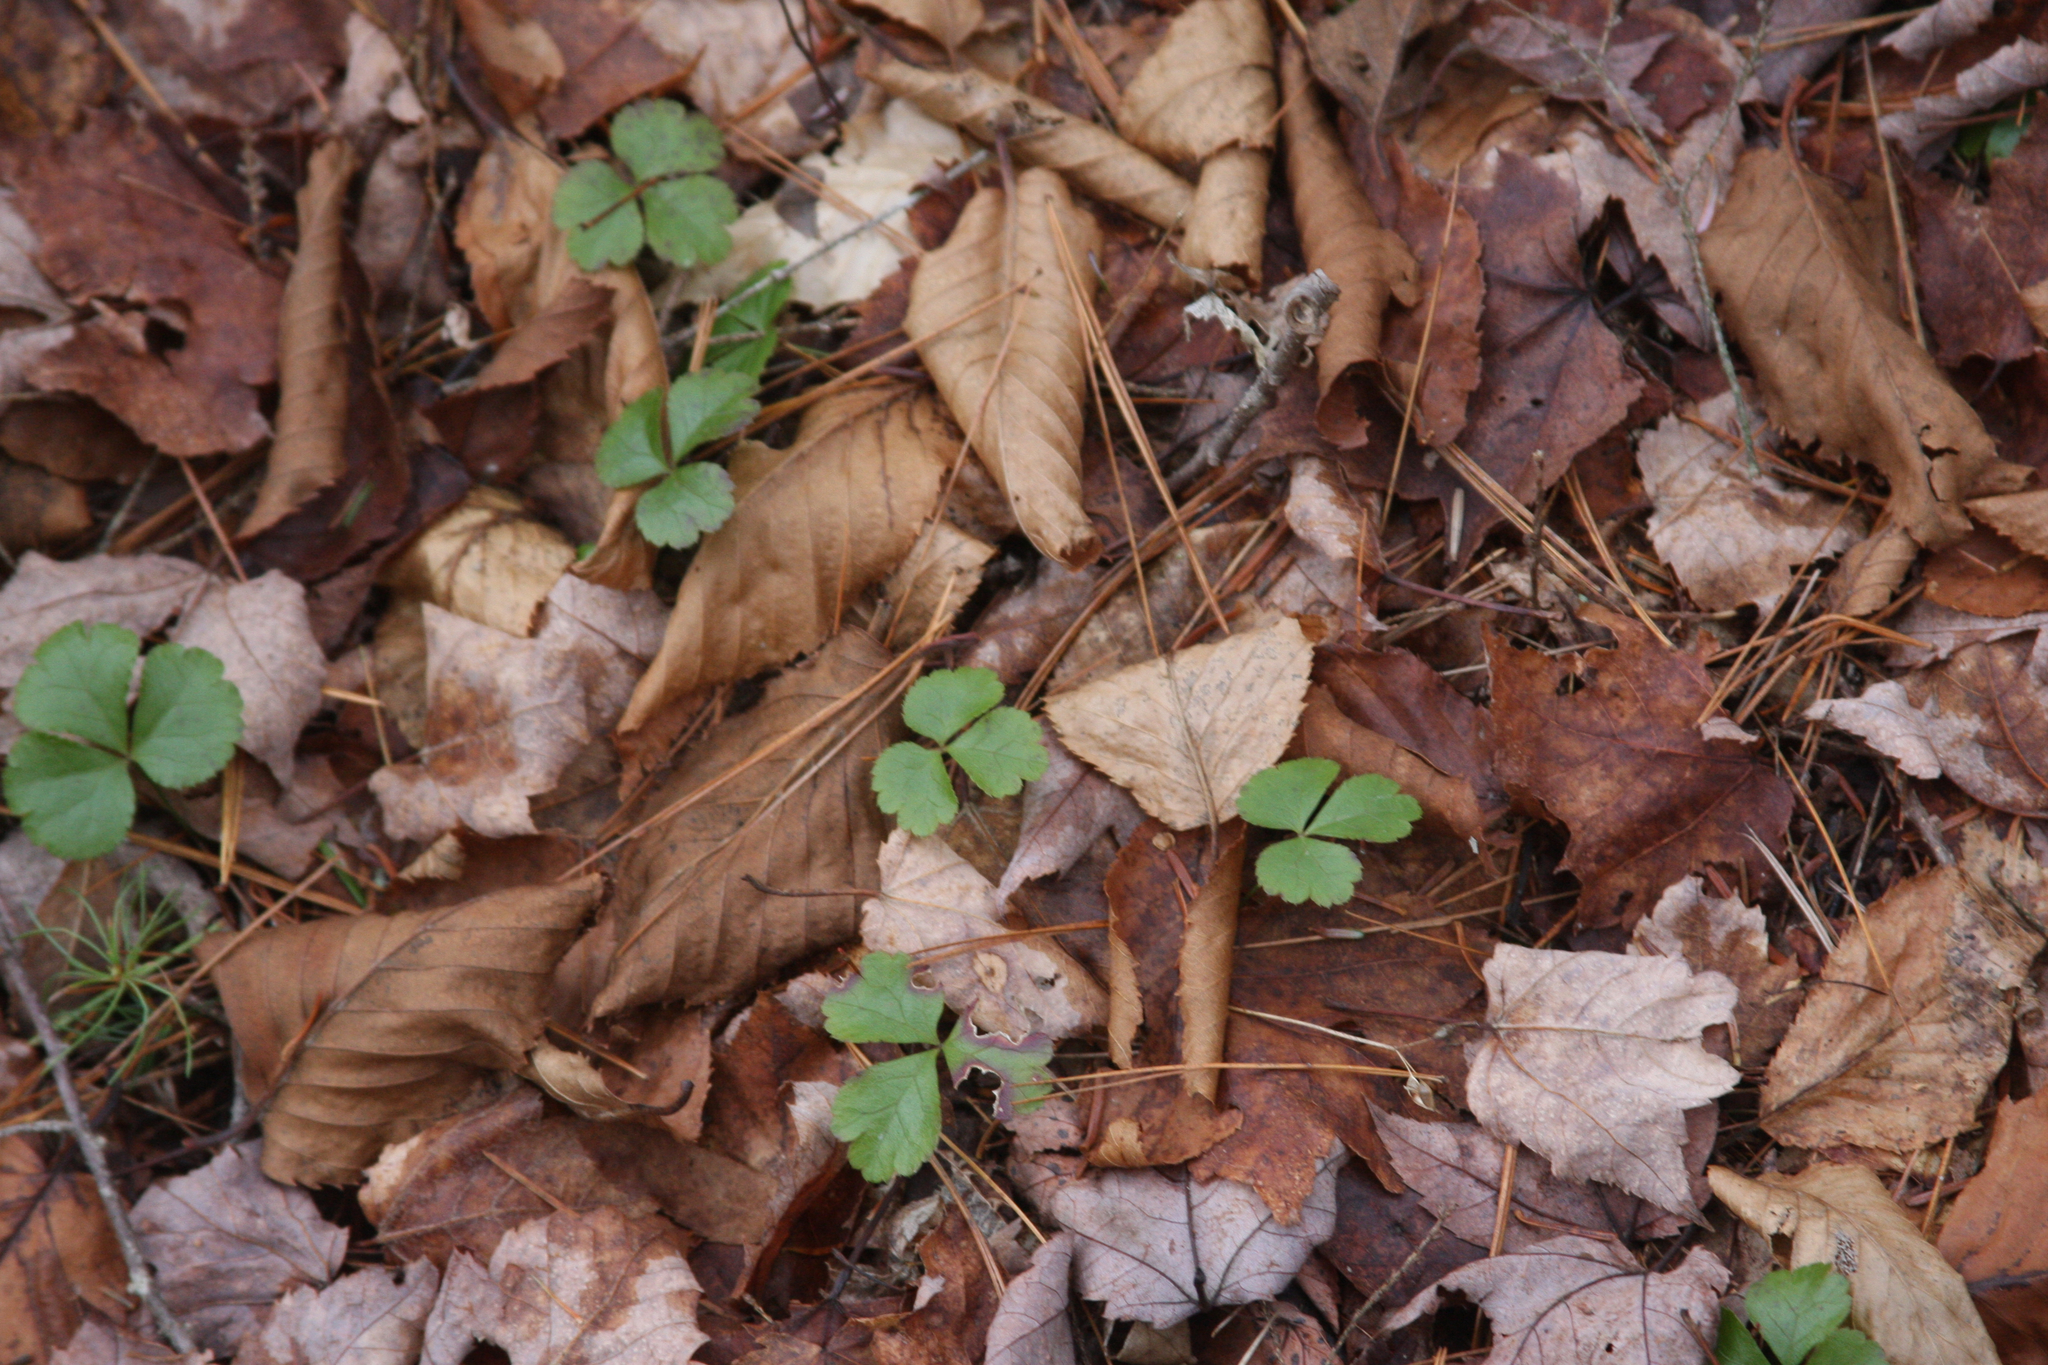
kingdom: Plantae
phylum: Tracheophyta
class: Magnoliopsida
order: Ranunculales
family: Ranunculaceae
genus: Coptis
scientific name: Coptis trifolia
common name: Canker-root
